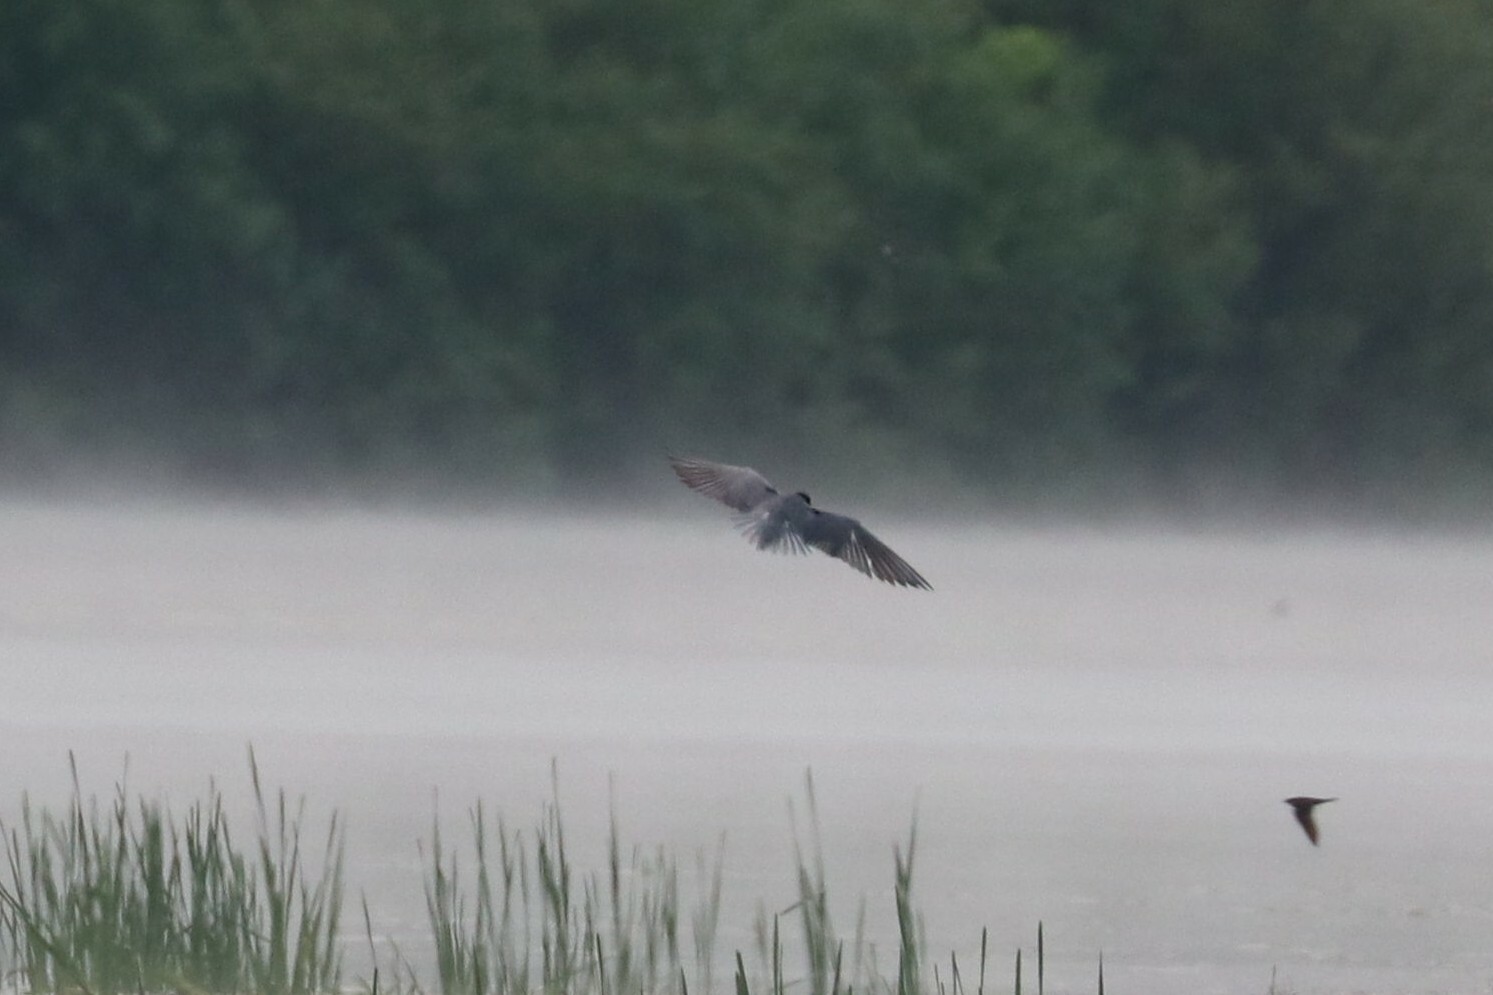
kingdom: Animalia
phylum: Chordata
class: Aves
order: Charadriiformes
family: Laridae
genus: Chlidonias
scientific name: Chlidonias niger
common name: Black tern
